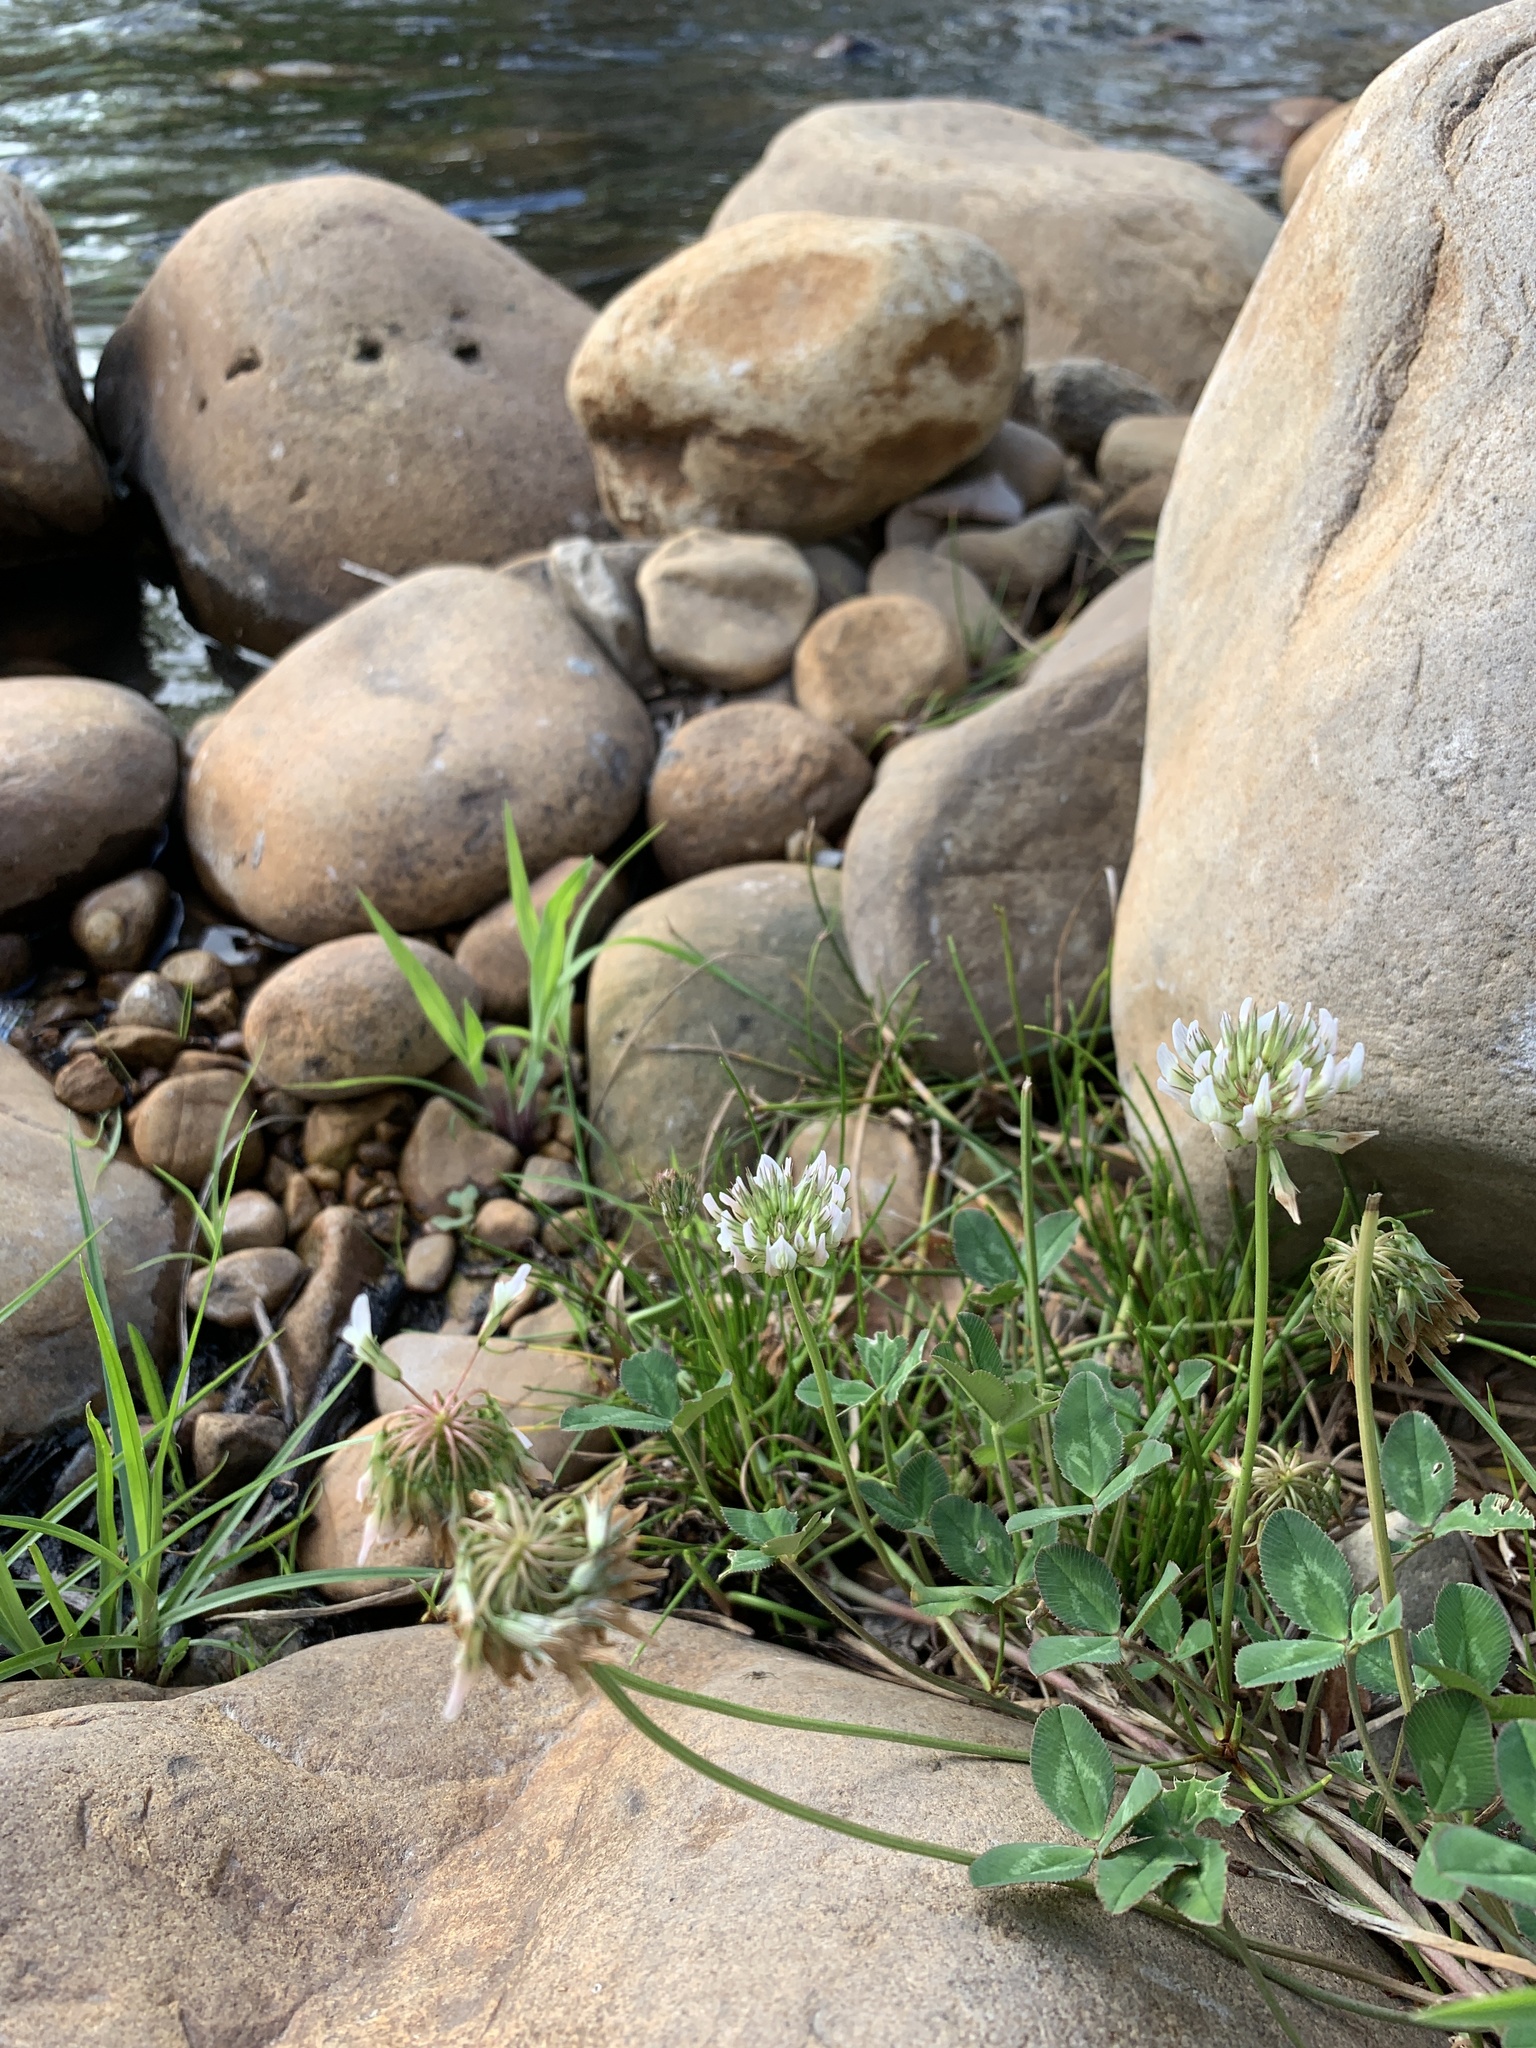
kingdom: Plantae
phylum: Tracheophyta
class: Magnoliopsida
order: Fabales
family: Fabaceae
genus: Trifolium
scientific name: Trifolium repens
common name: White clover
